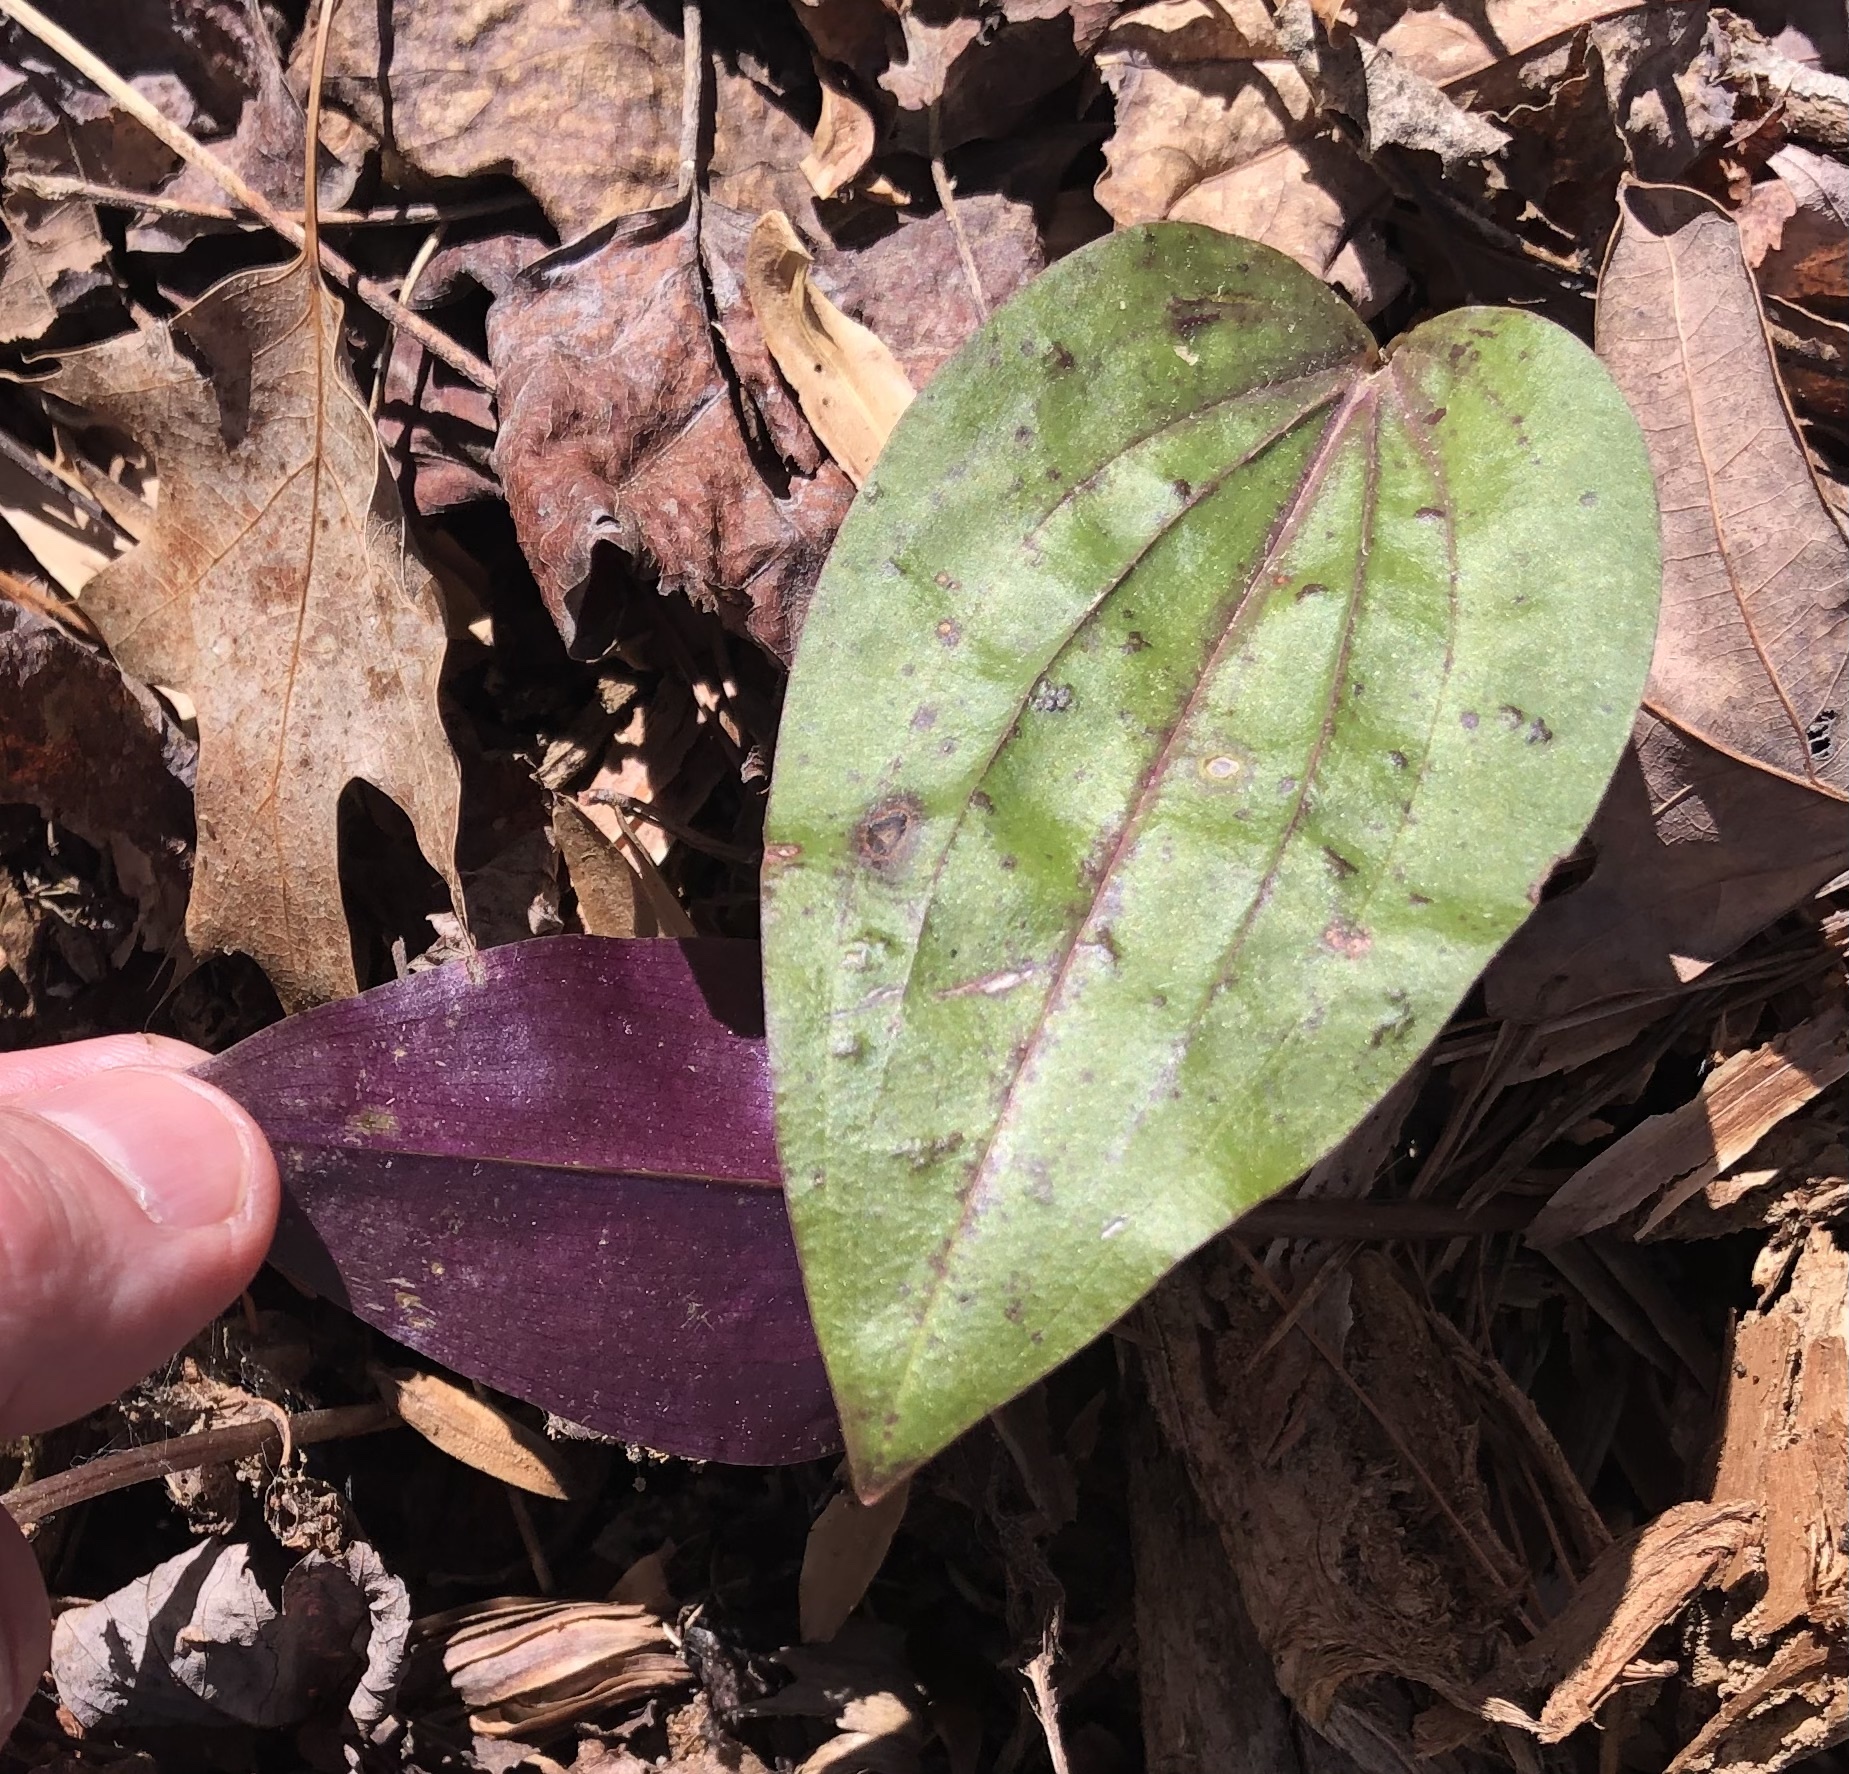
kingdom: Plantae
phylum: Tracheophyta
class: Liliopsida
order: Asparagales
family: Orchidaceae
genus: Tipularia
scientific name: Tipularia discolor
